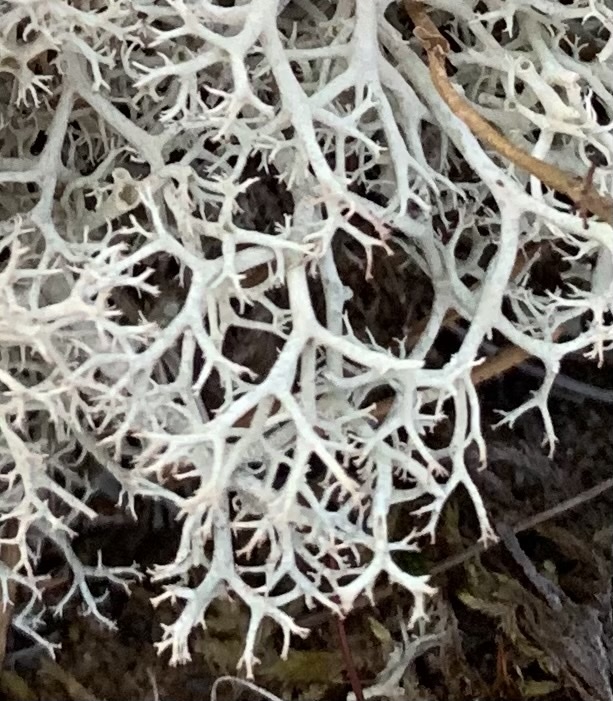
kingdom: Fungi
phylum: Ascomycota
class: Lecanoromycetes
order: Lecanorales
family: Cladoniaceae
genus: Cladonia
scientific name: Cladonia portentosa
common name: Reindeer lichen
